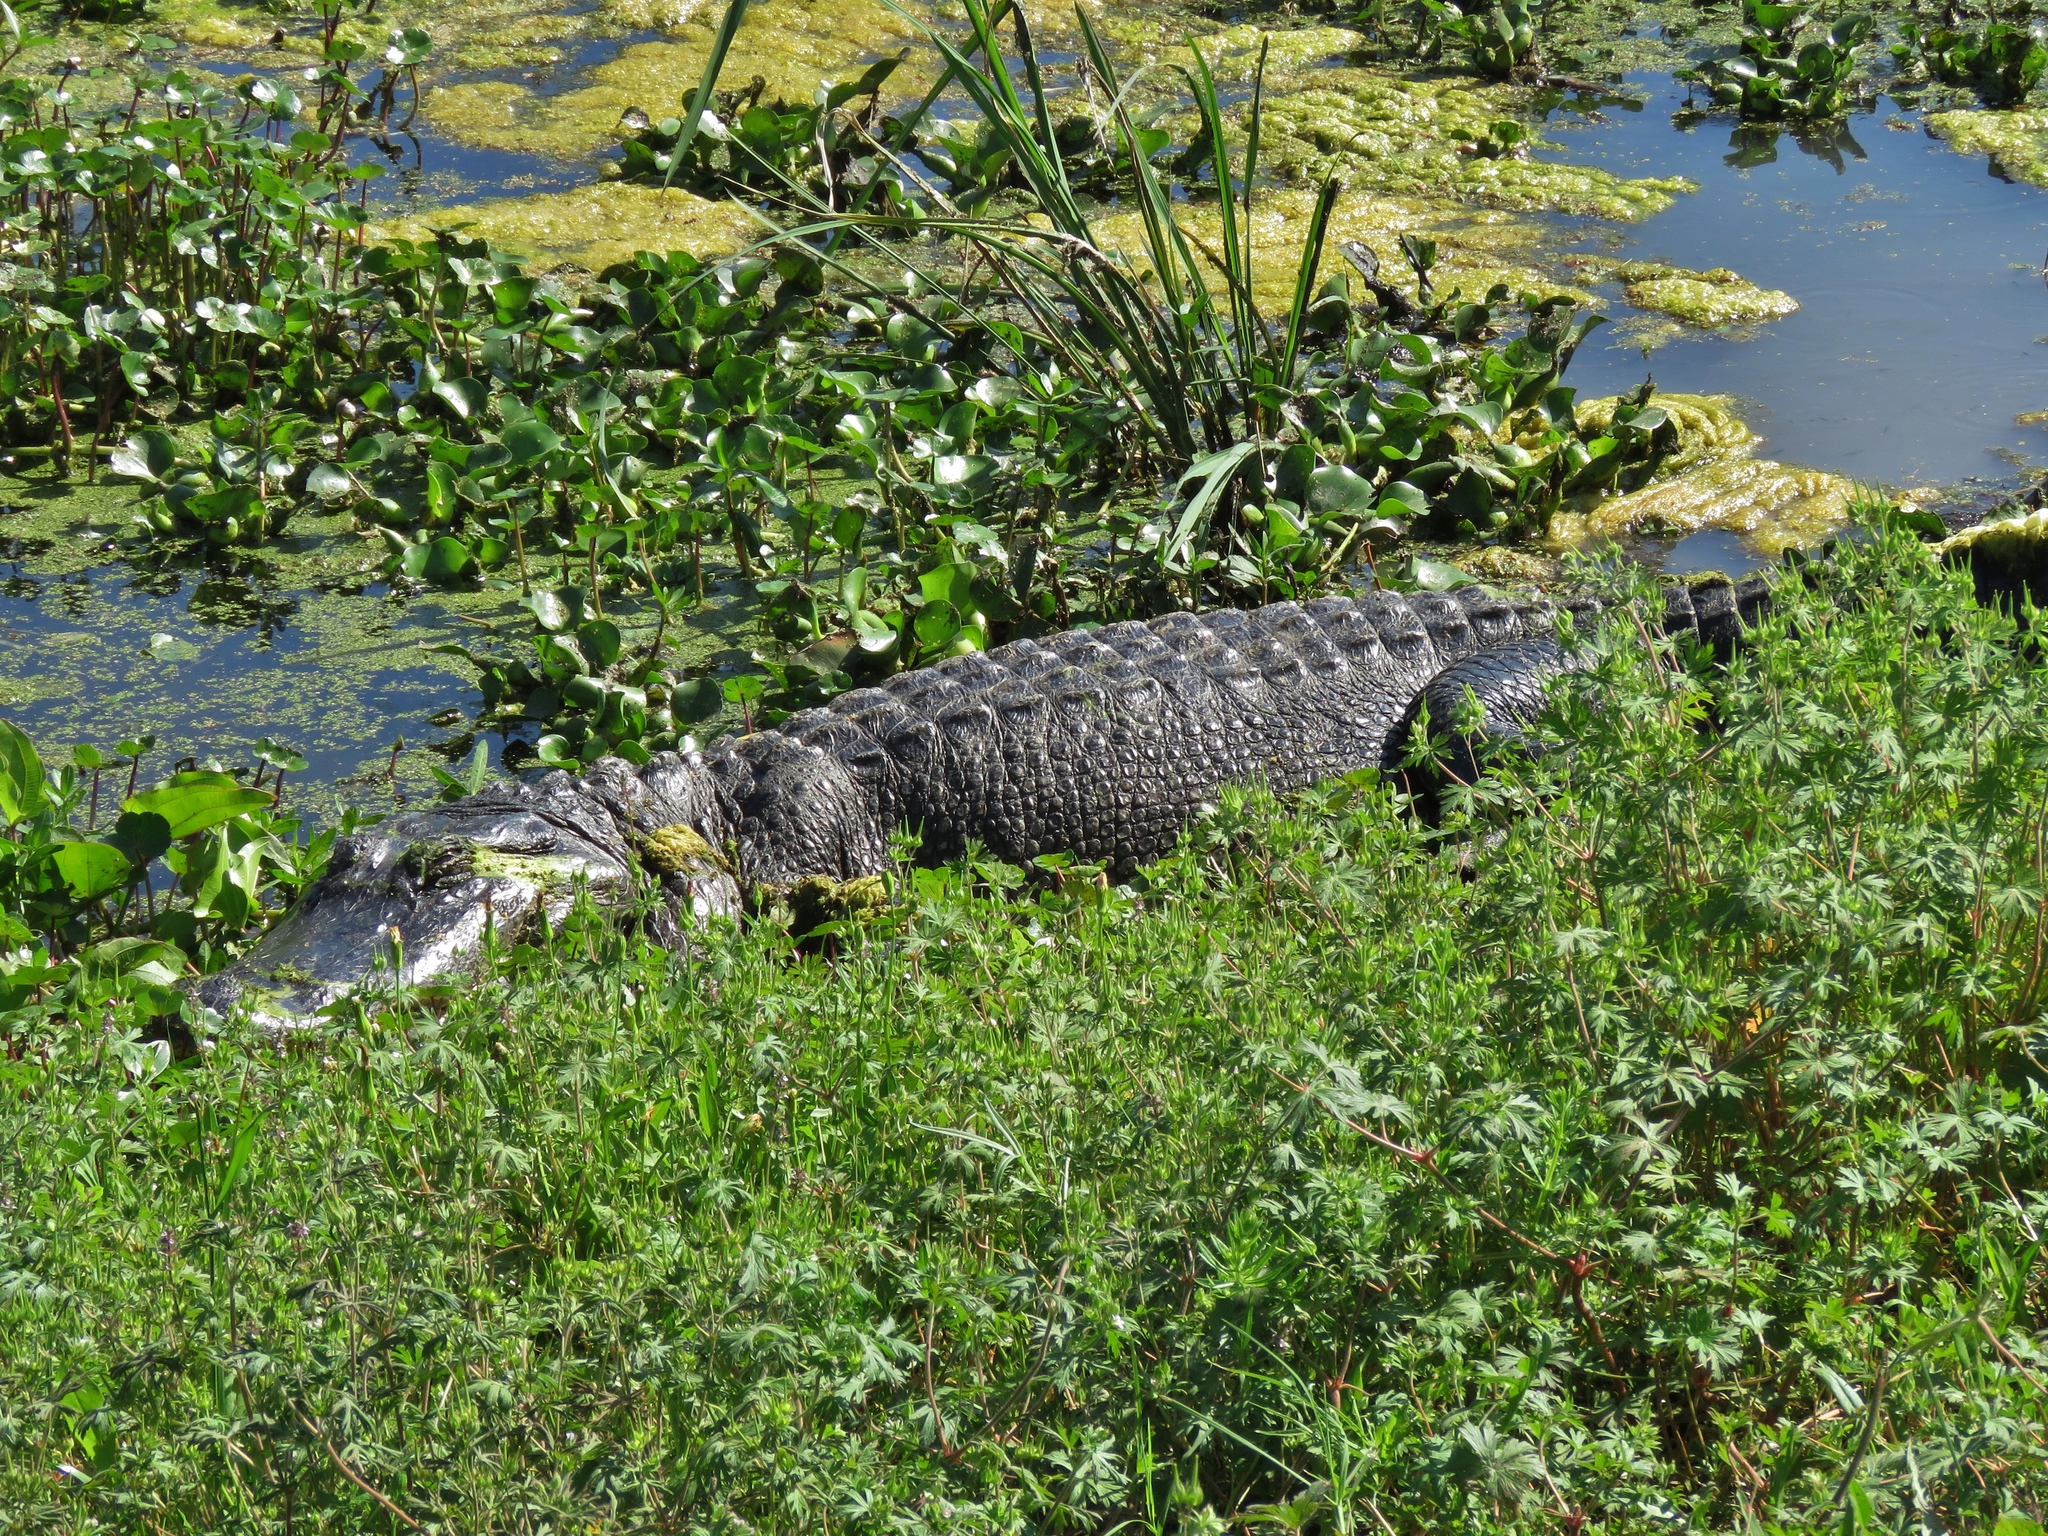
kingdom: Animalia
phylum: Chordata
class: Crocodylia
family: Alligatoridae
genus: Alligator
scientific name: Alligator mississippiensis
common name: American alligator
